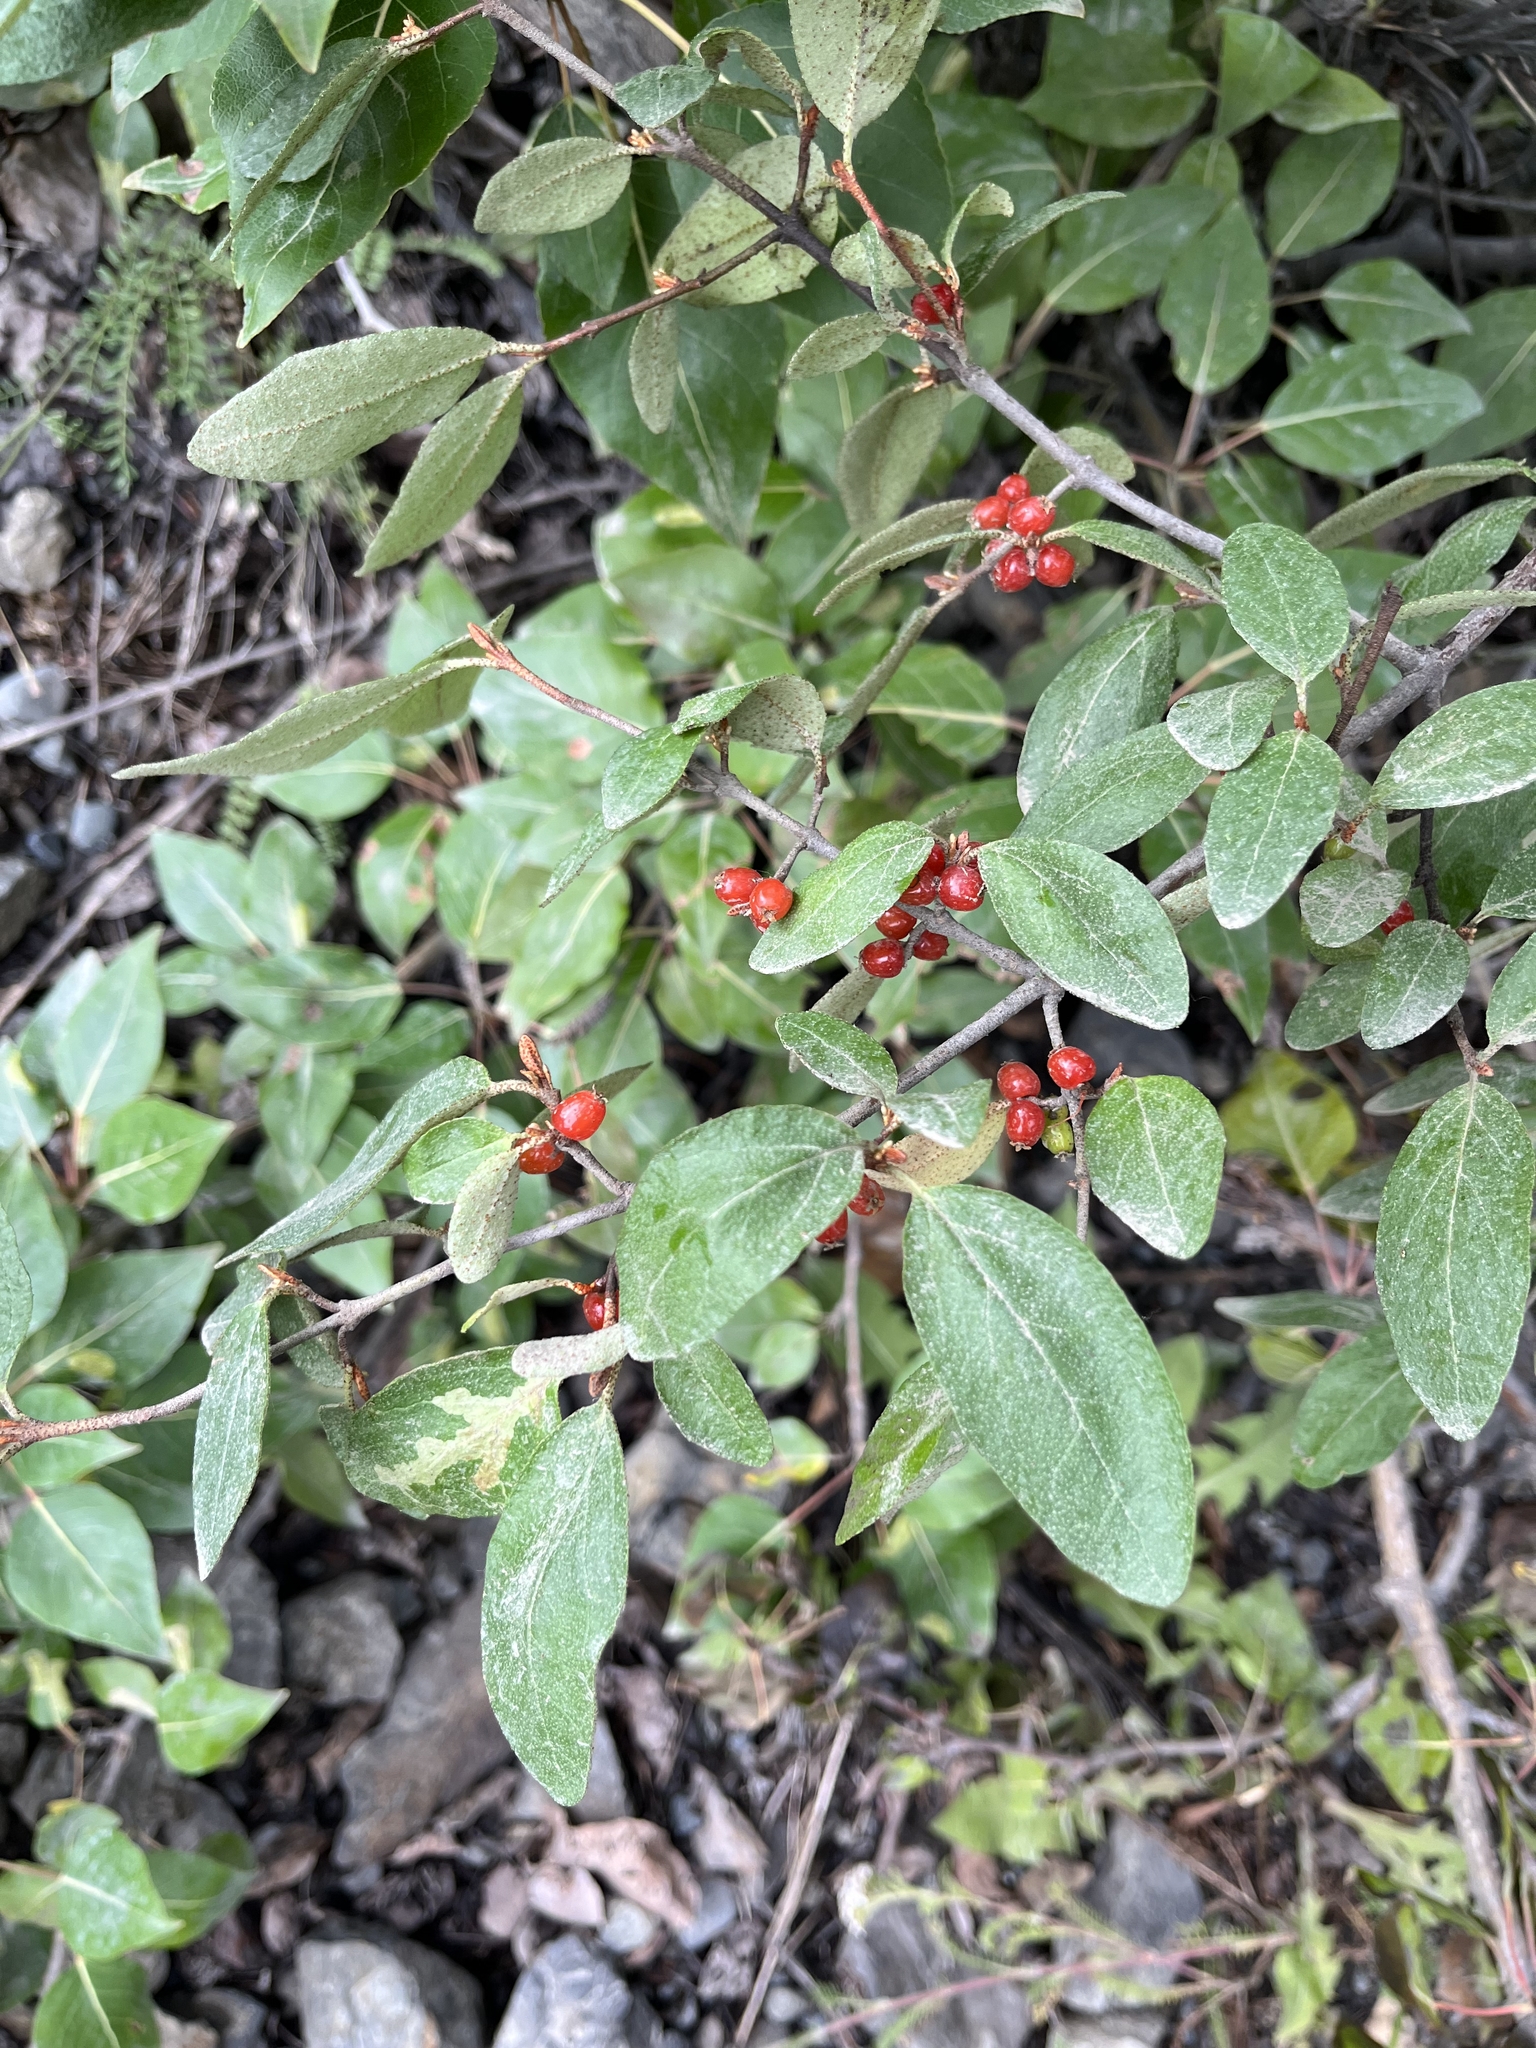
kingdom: Plantae
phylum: Tracheophyta
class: Magnoliopsida
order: Rosales
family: Elaeagnaceae
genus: Shepherdia
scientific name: Shepherdia canadensis
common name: Soapberry
